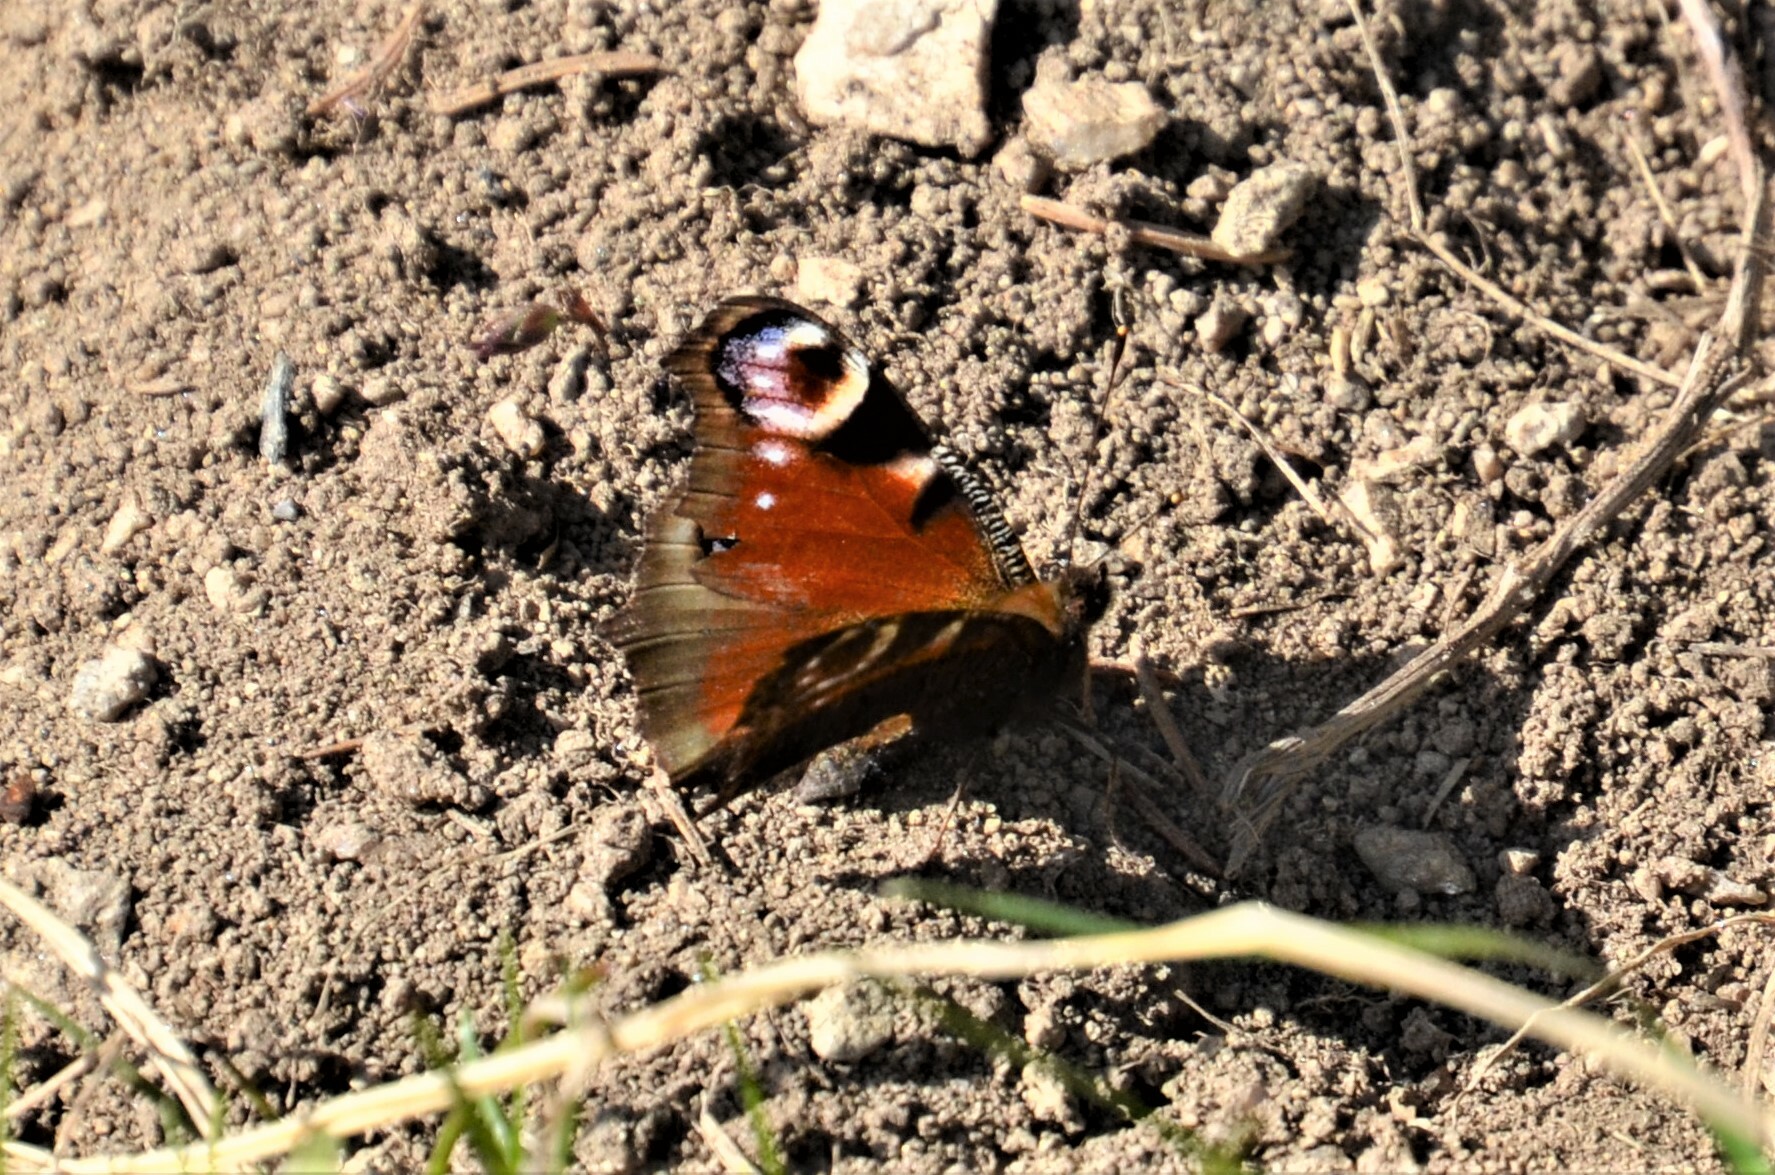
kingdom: Animalia
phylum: Arthropoda
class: Insecta
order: Lepidoptera
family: Nymphalidae
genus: Aglais
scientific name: Aglais io
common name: Peacock
